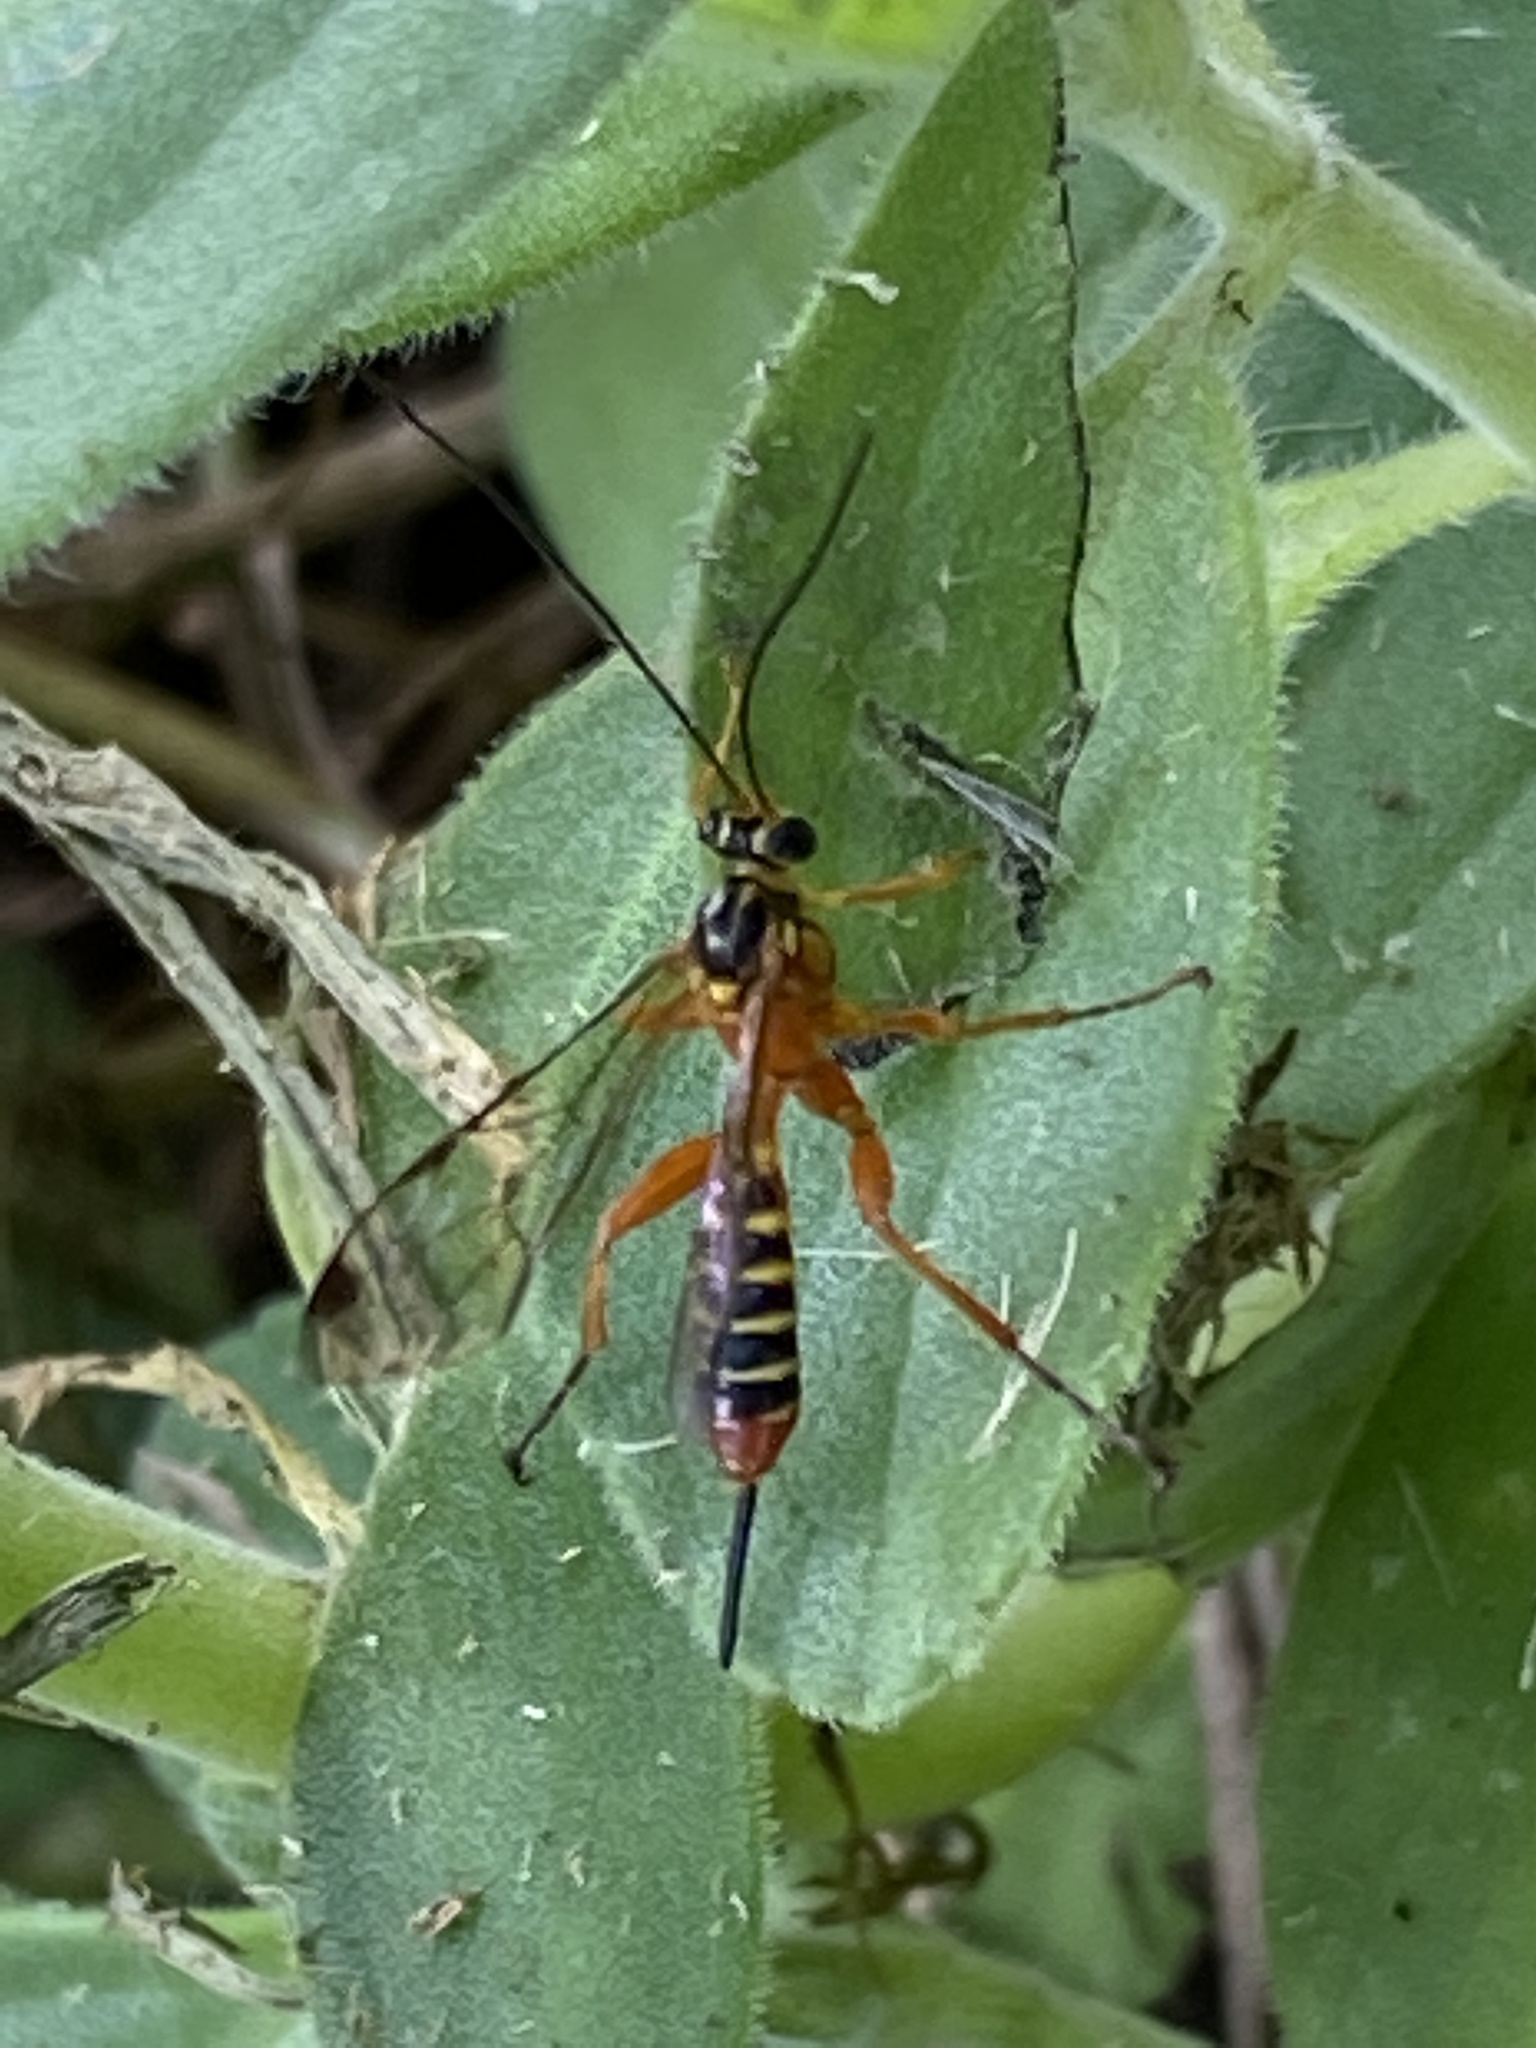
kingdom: Animalia
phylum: Arthropoda
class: Insecta
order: Hymenoptera
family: Ichneumonidae
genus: Echthromorpha
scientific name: Echthromorpha agrestoria
